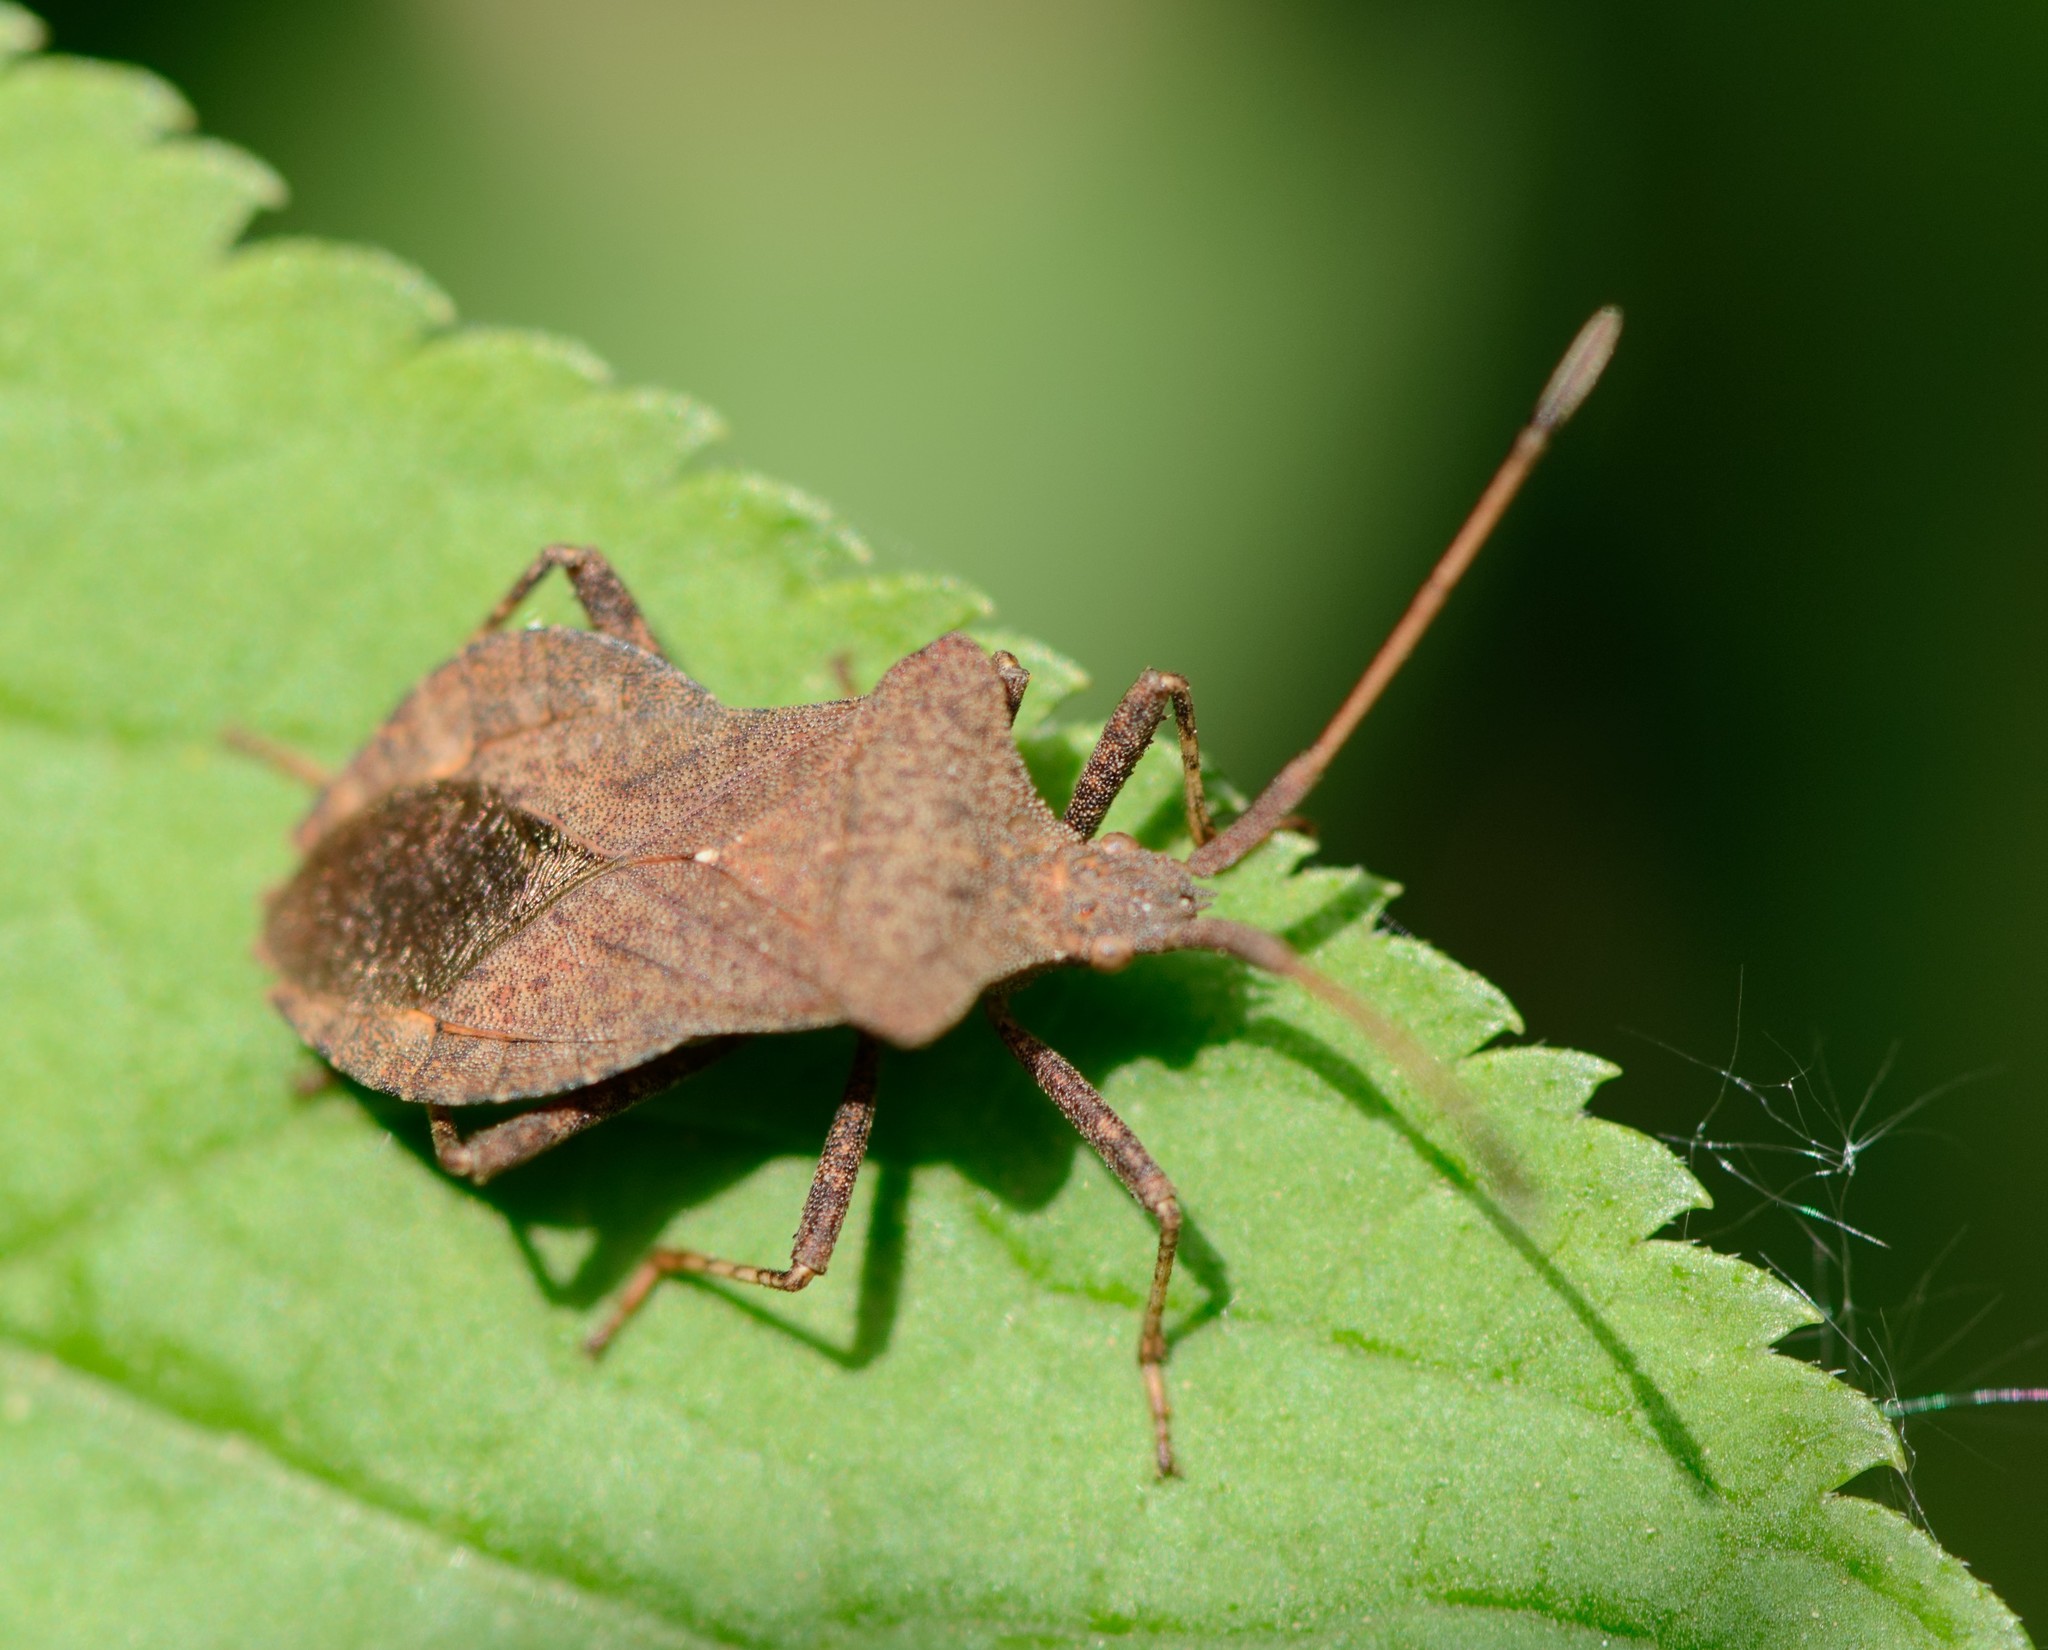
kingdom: Animalia
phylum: Arthropoda
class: Insecta
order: Hemiptera
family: Coreidae
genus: Coreus
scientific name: Coreus marginatus
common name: Dock bug
